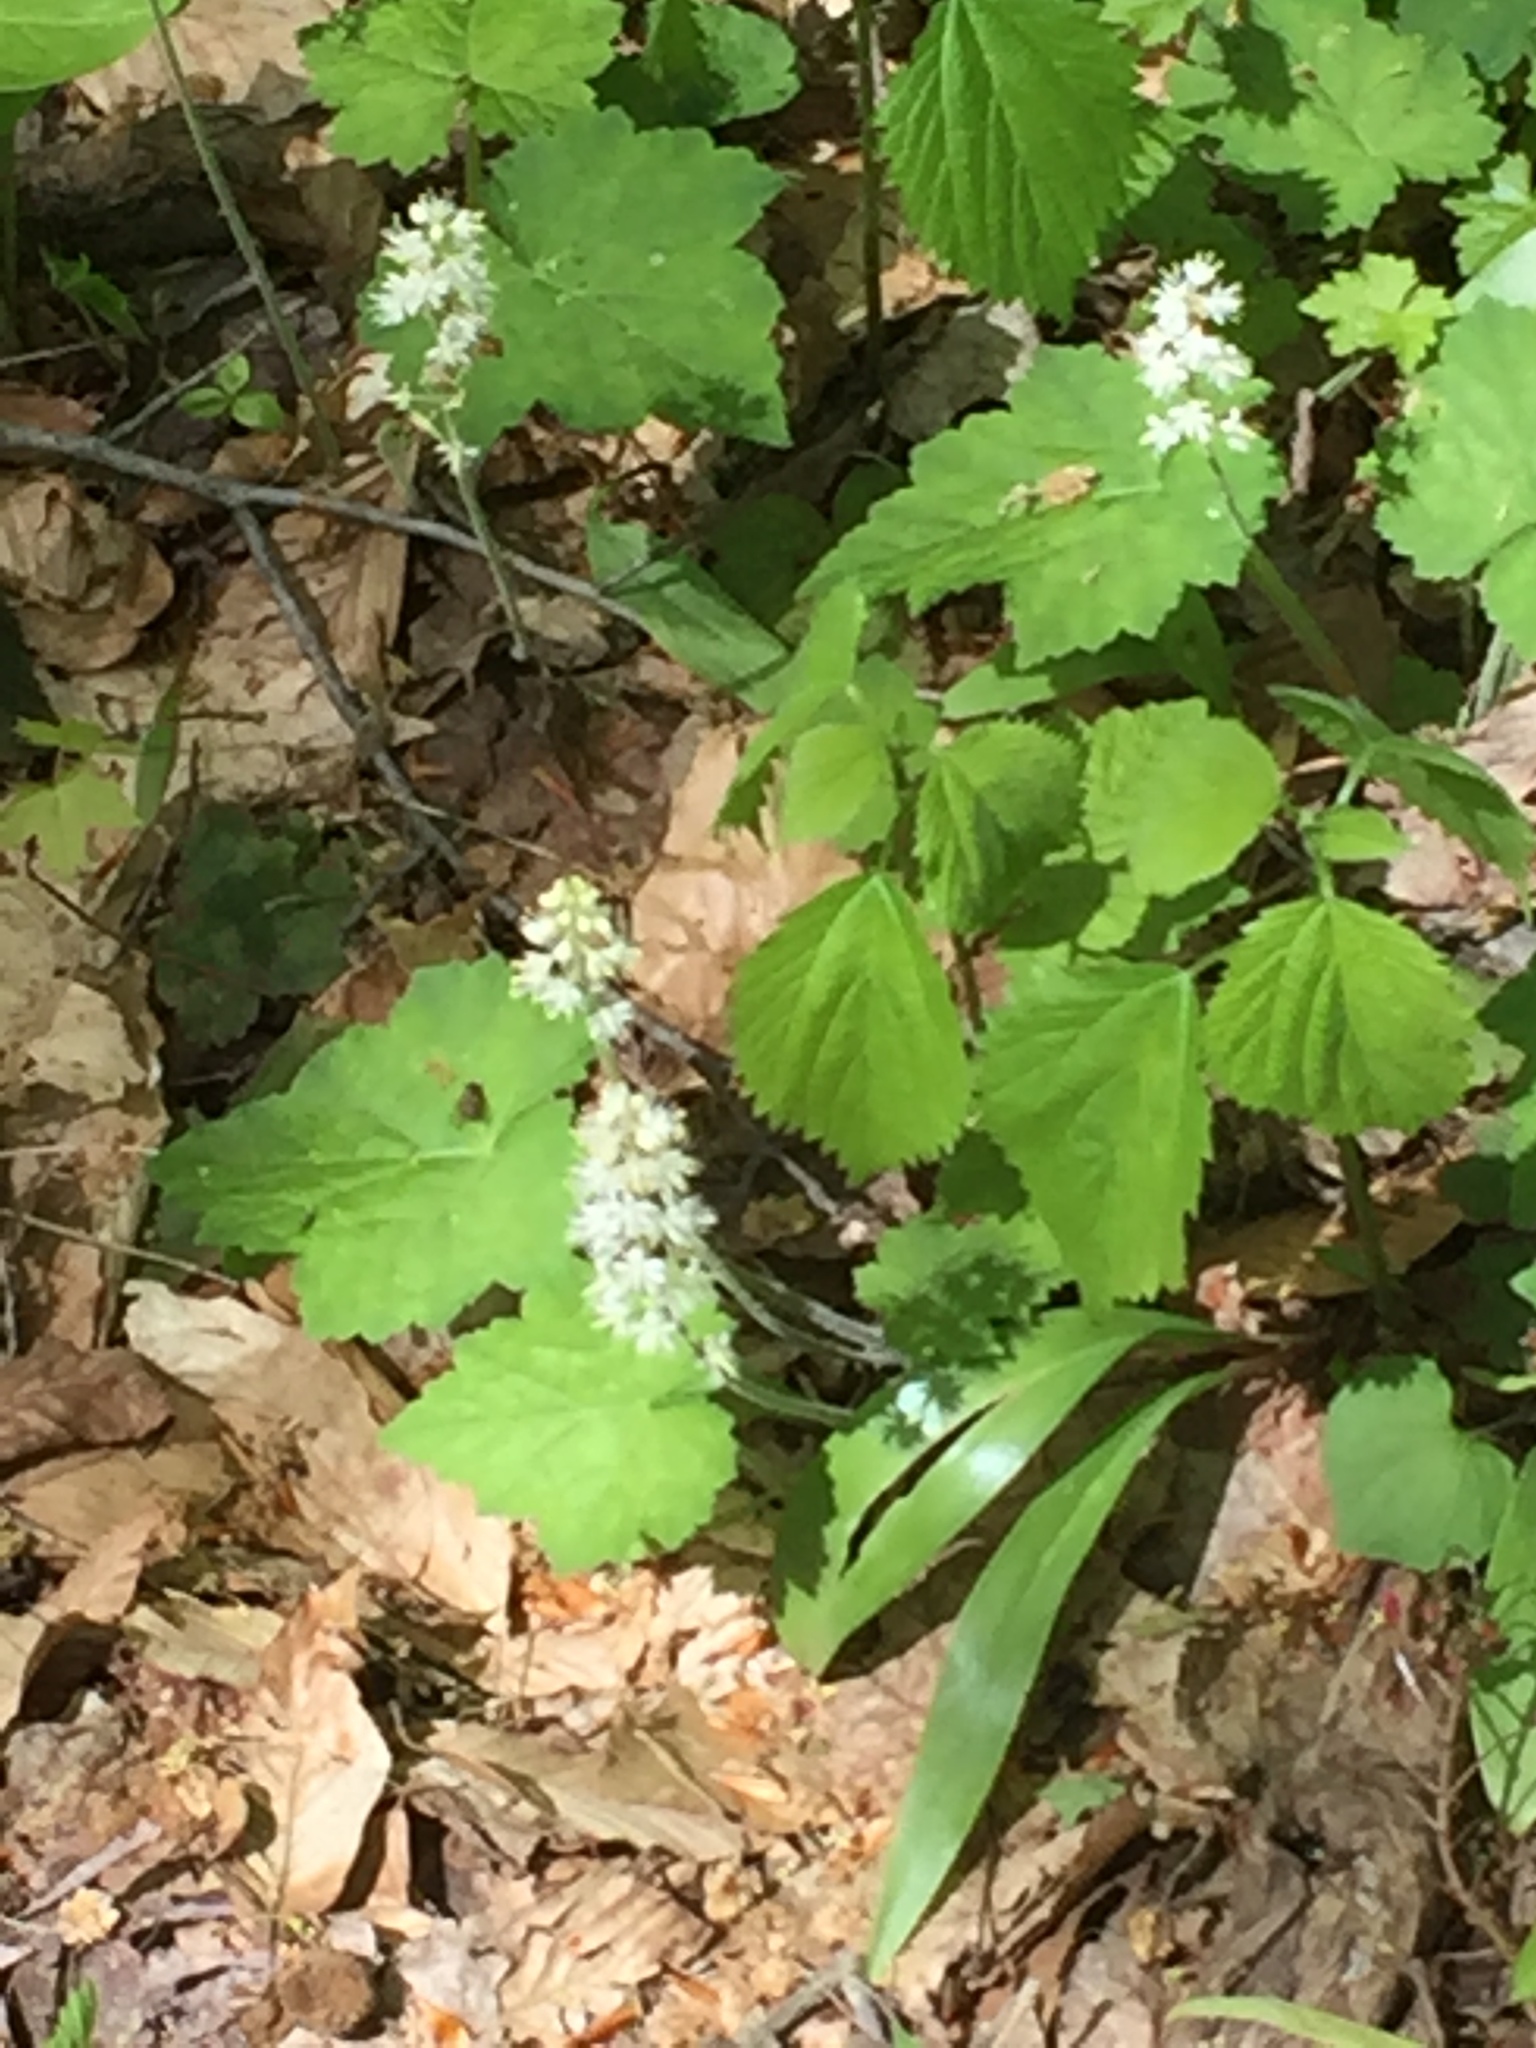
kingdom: Plantae
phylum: Tracheophyta
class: Magnoliopsida
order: Saxifragales
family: Saxifragaceae
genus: Tiarella
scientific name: Tiarella stolonifera
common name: Stoloniferous foamflower
